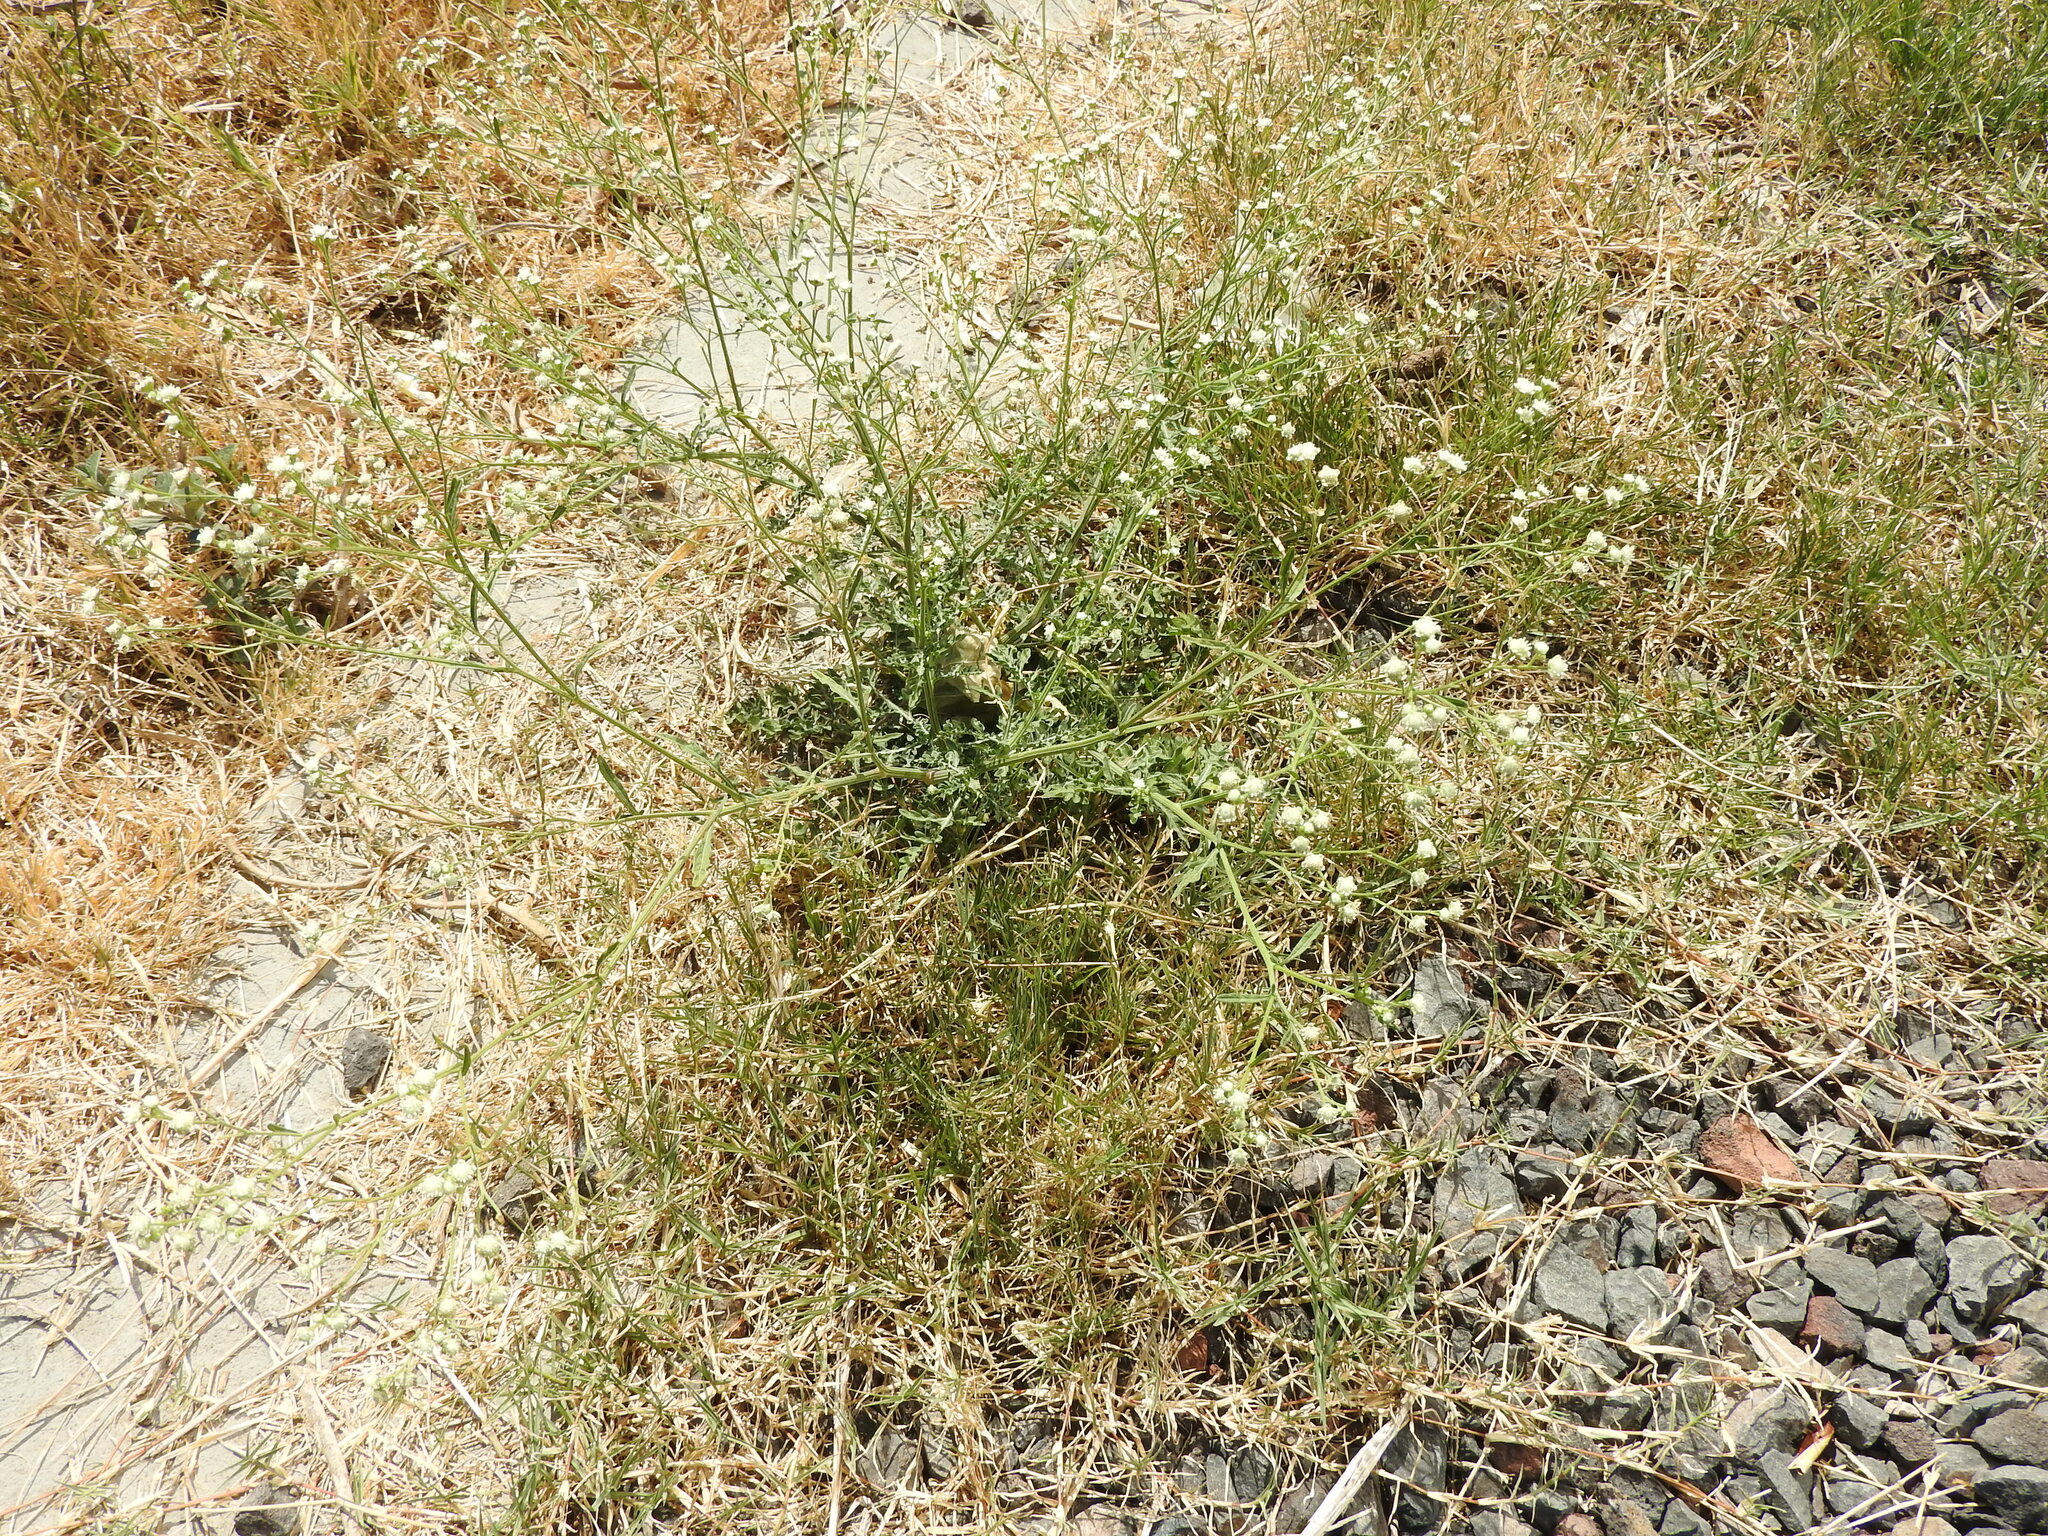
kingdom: Plantae
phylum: Tracheophyta
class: Magnoliopsida
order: Asterales
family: Asteraceae
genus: Parthenium
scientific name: Parthenium hysterophorus
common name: Santa maria feverfew
